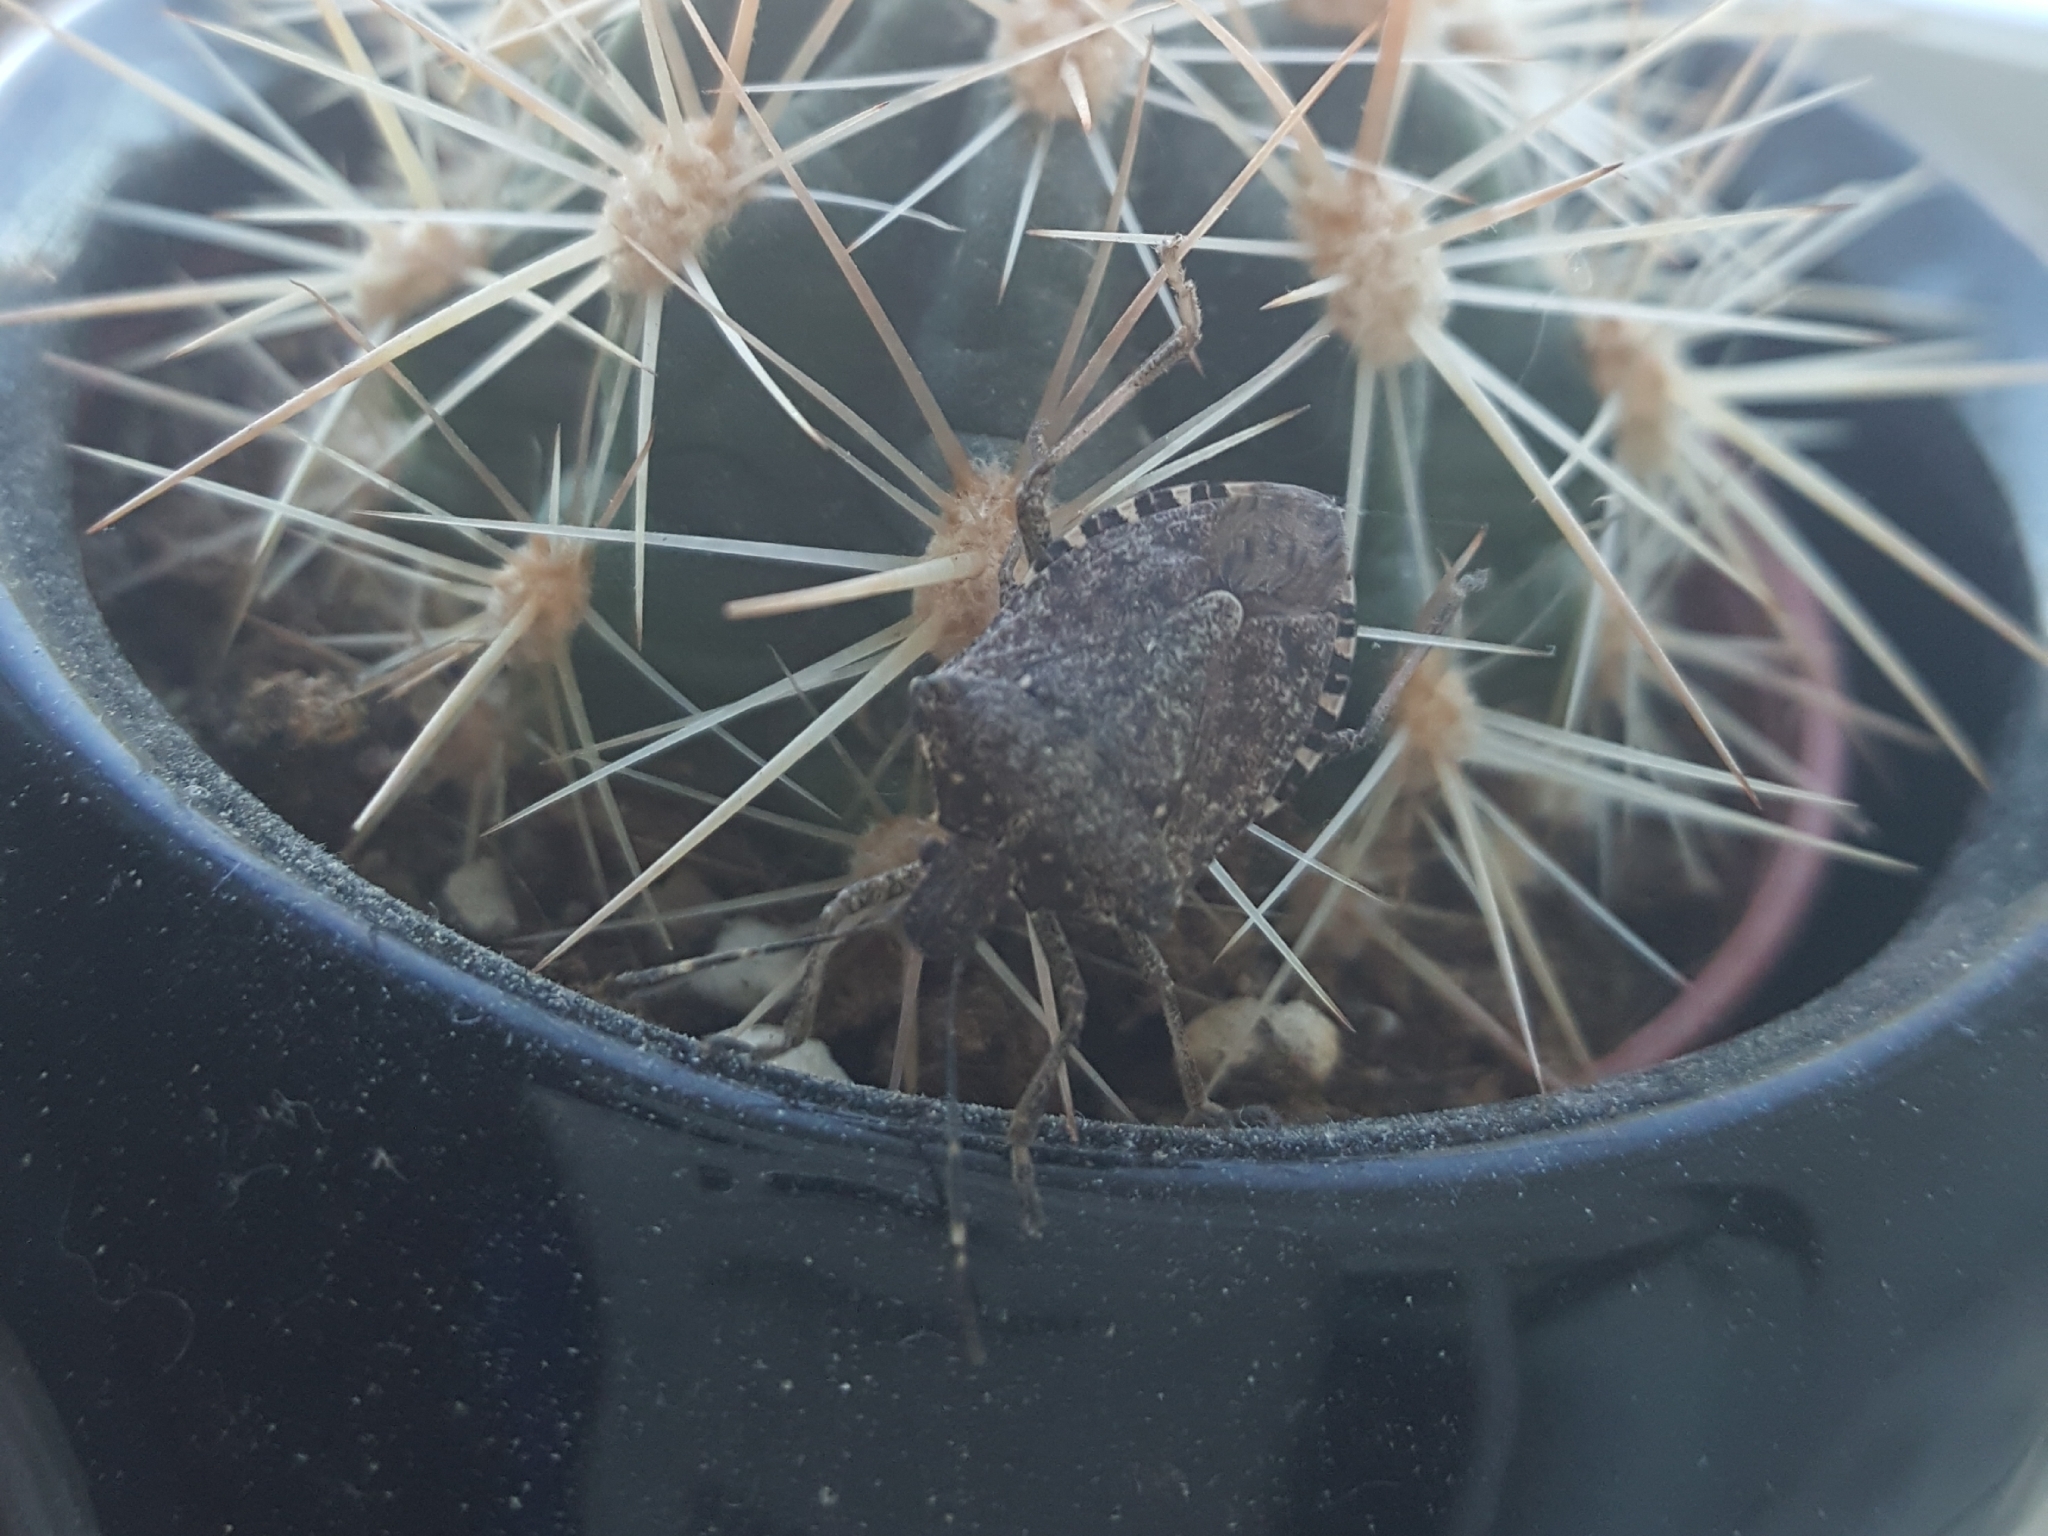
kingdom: Animalia
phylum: Arthropoda
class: Insecta
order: Hemiptera
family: Pentatomidae
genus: Halyomorpha
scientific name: Halyomorpha halys
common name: Brown marmorated stink bug
